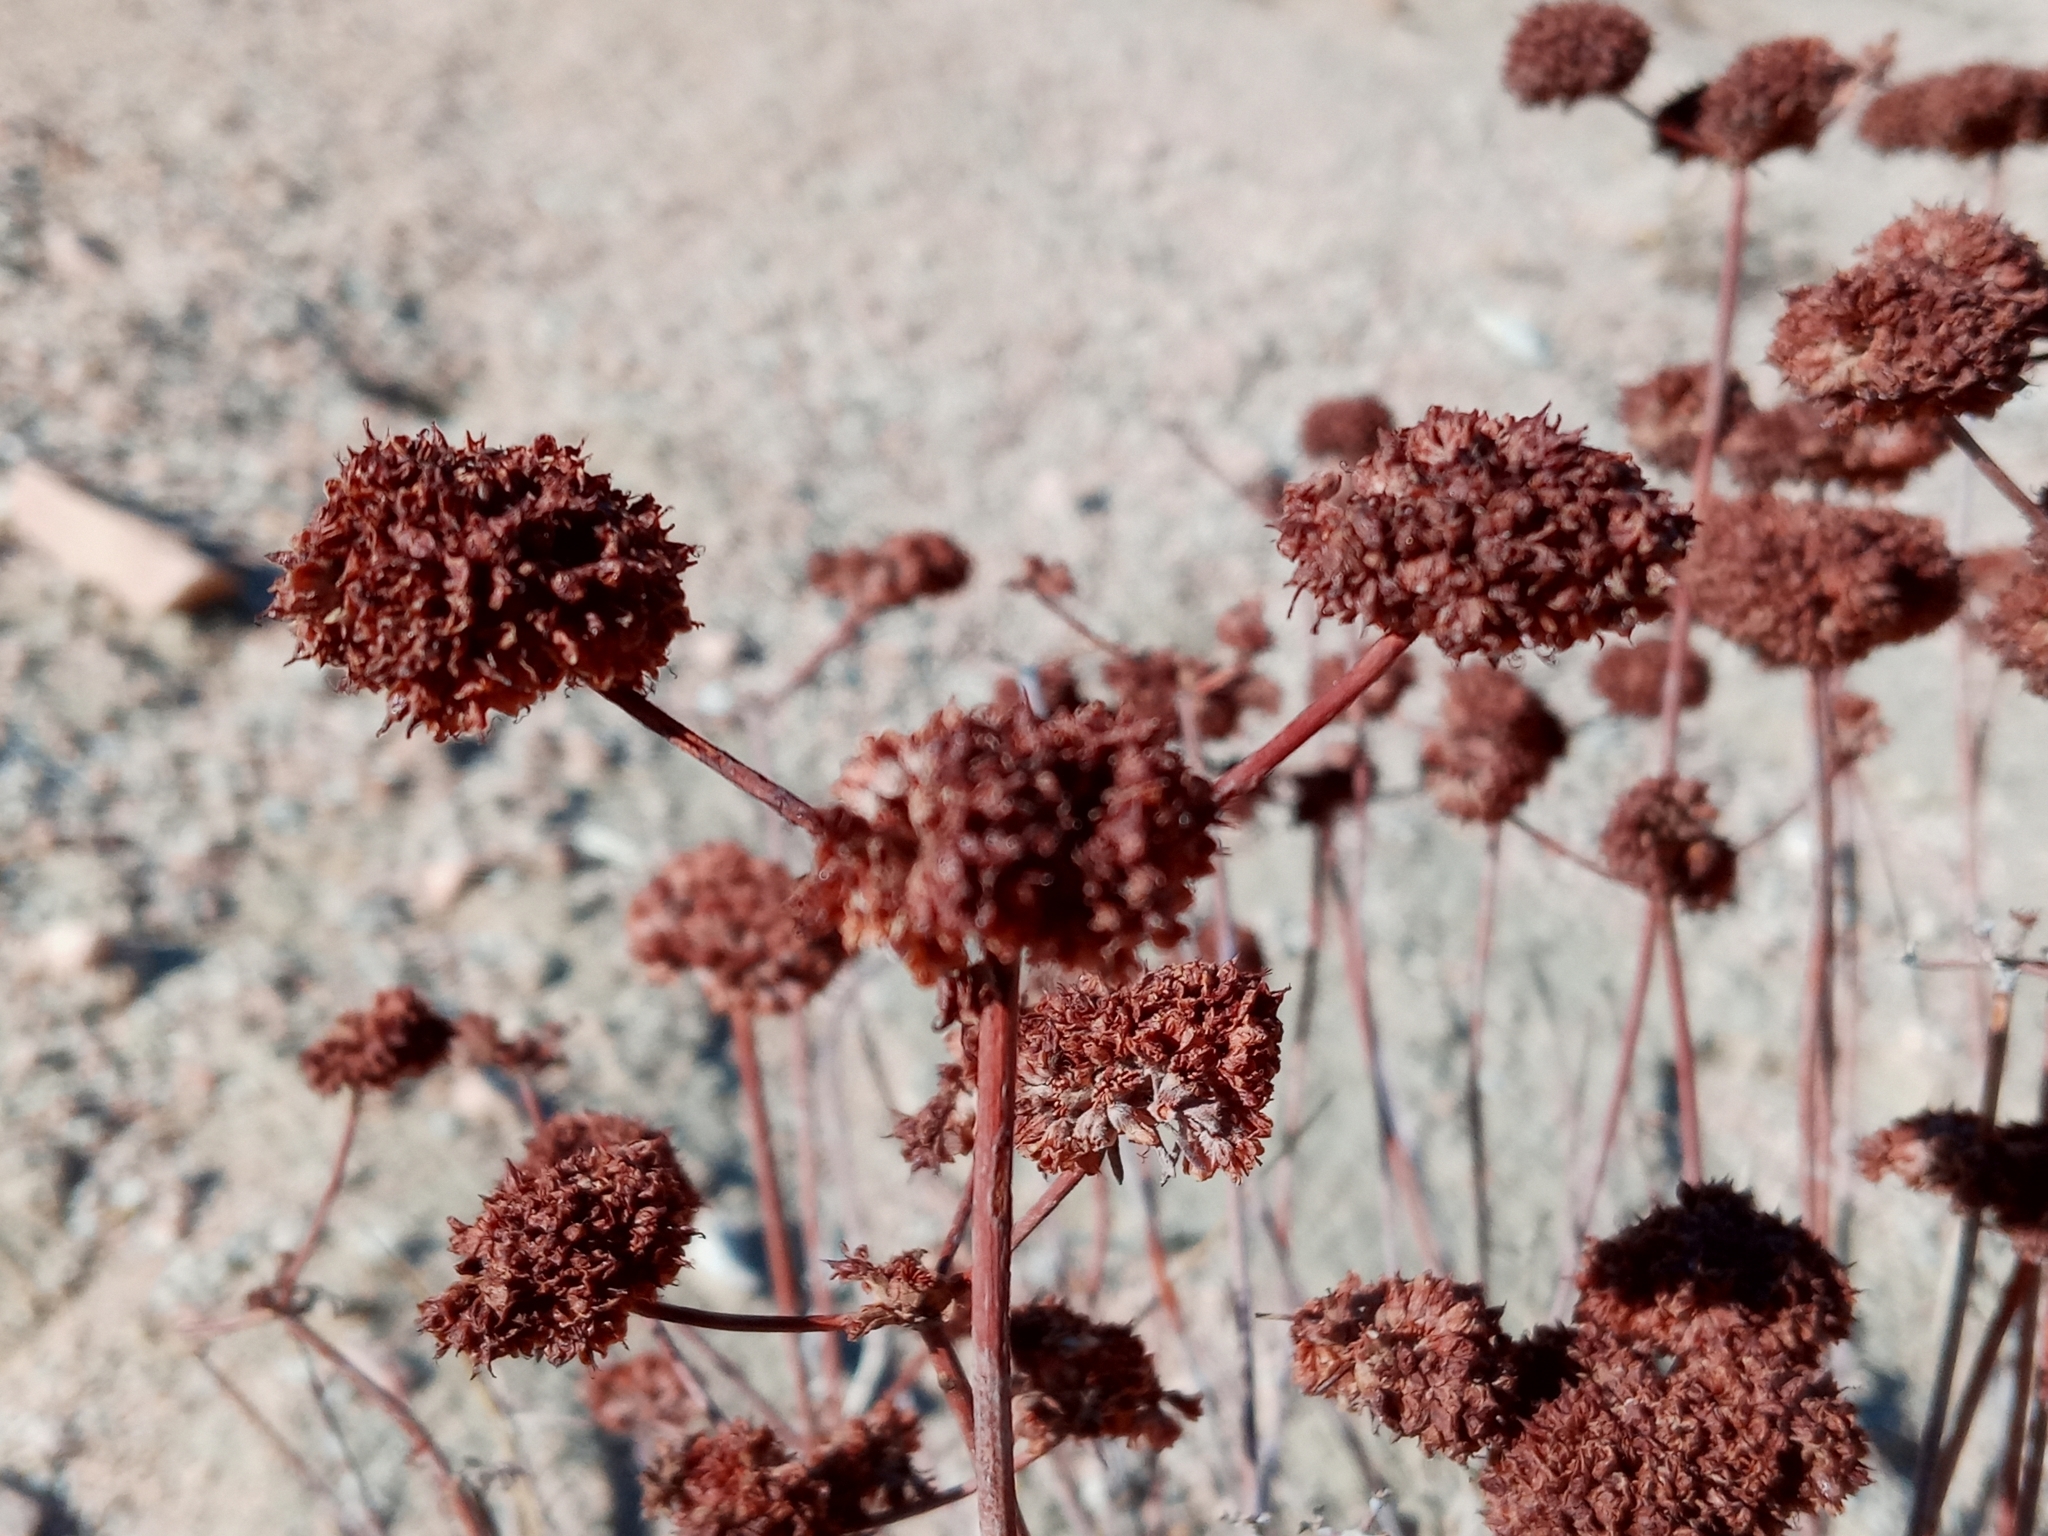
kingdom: Plantae
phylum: Tracheophyta
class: Magnoliopsida
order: Caryophyllales
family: Polygonaceae
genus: Eriogonum
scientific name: Eriogonum fasciculatum
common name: California wild buckwheat
